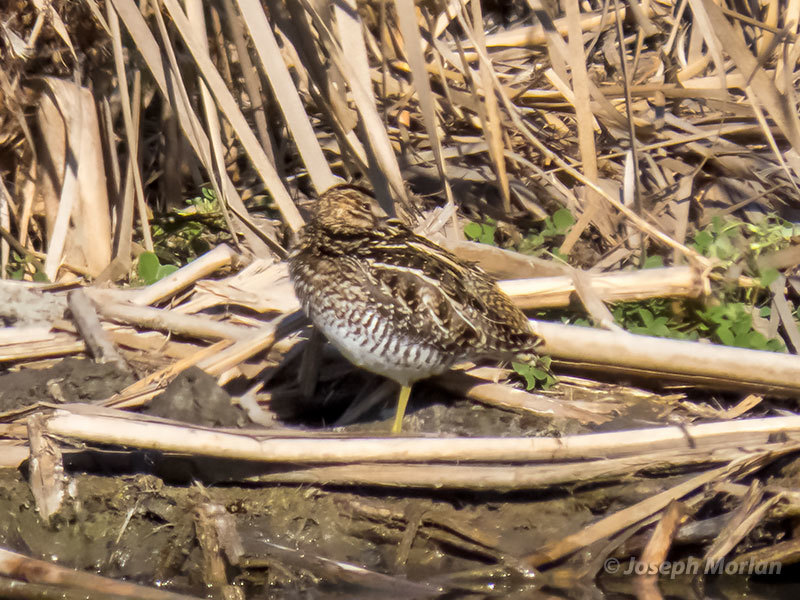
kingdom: Animalia
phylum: Chordata
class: Aves
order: Charadriiformes
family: Scolopacidae
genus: Gallinago
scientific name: Gallinago delicata
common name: Wilson's snipe
